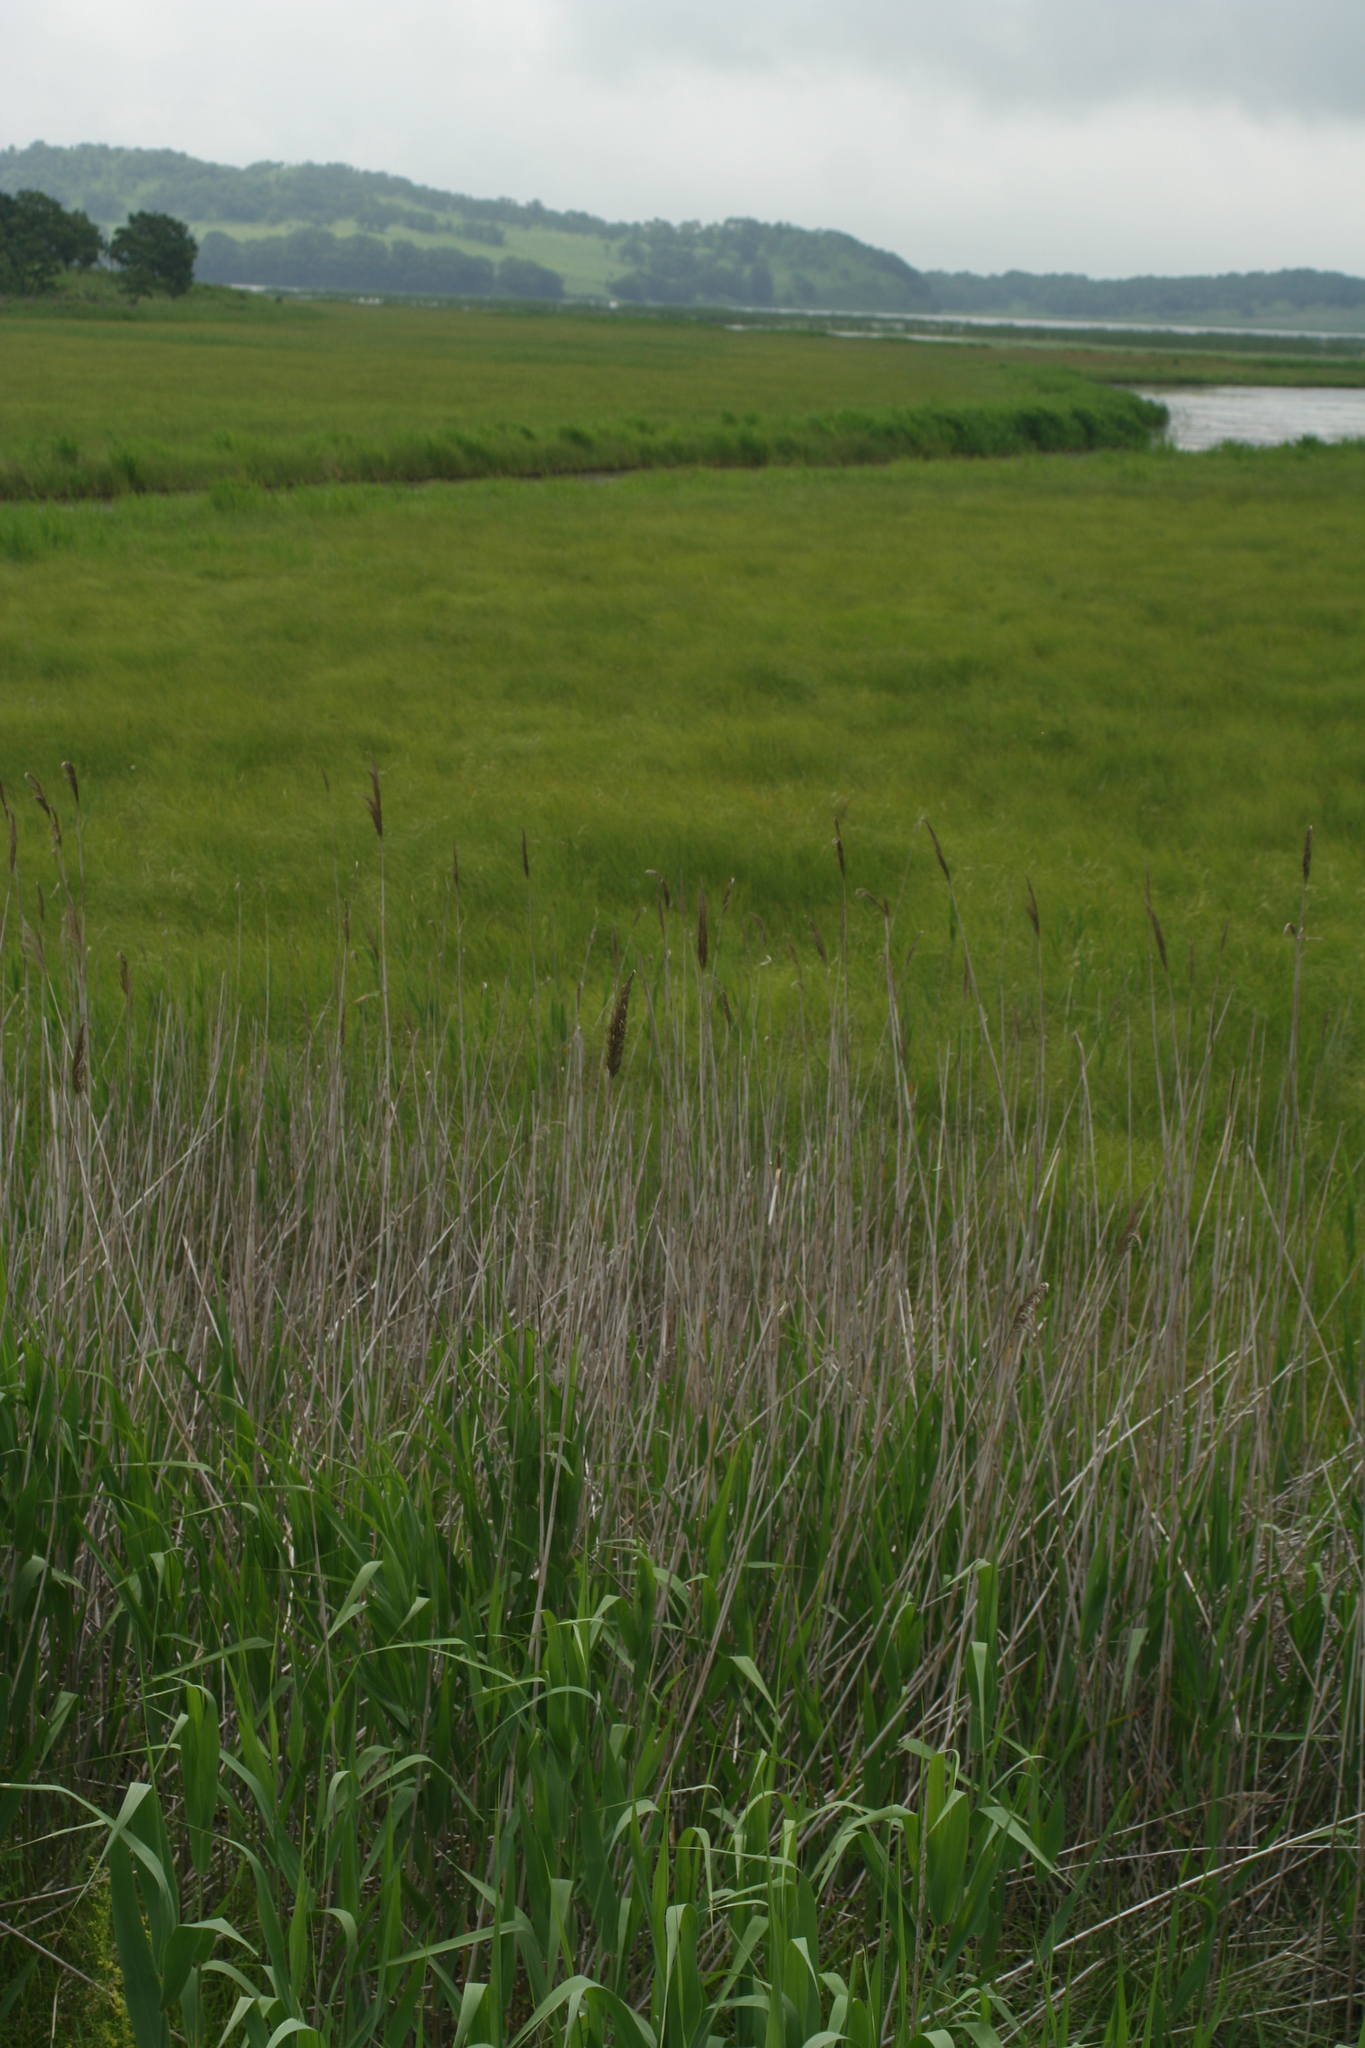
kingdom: Plantae
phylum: Tracheophyta
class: Liliopsida
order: Poales
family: Poaceae
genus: Phragmites
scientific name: Phragmites australis
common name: Common reed
